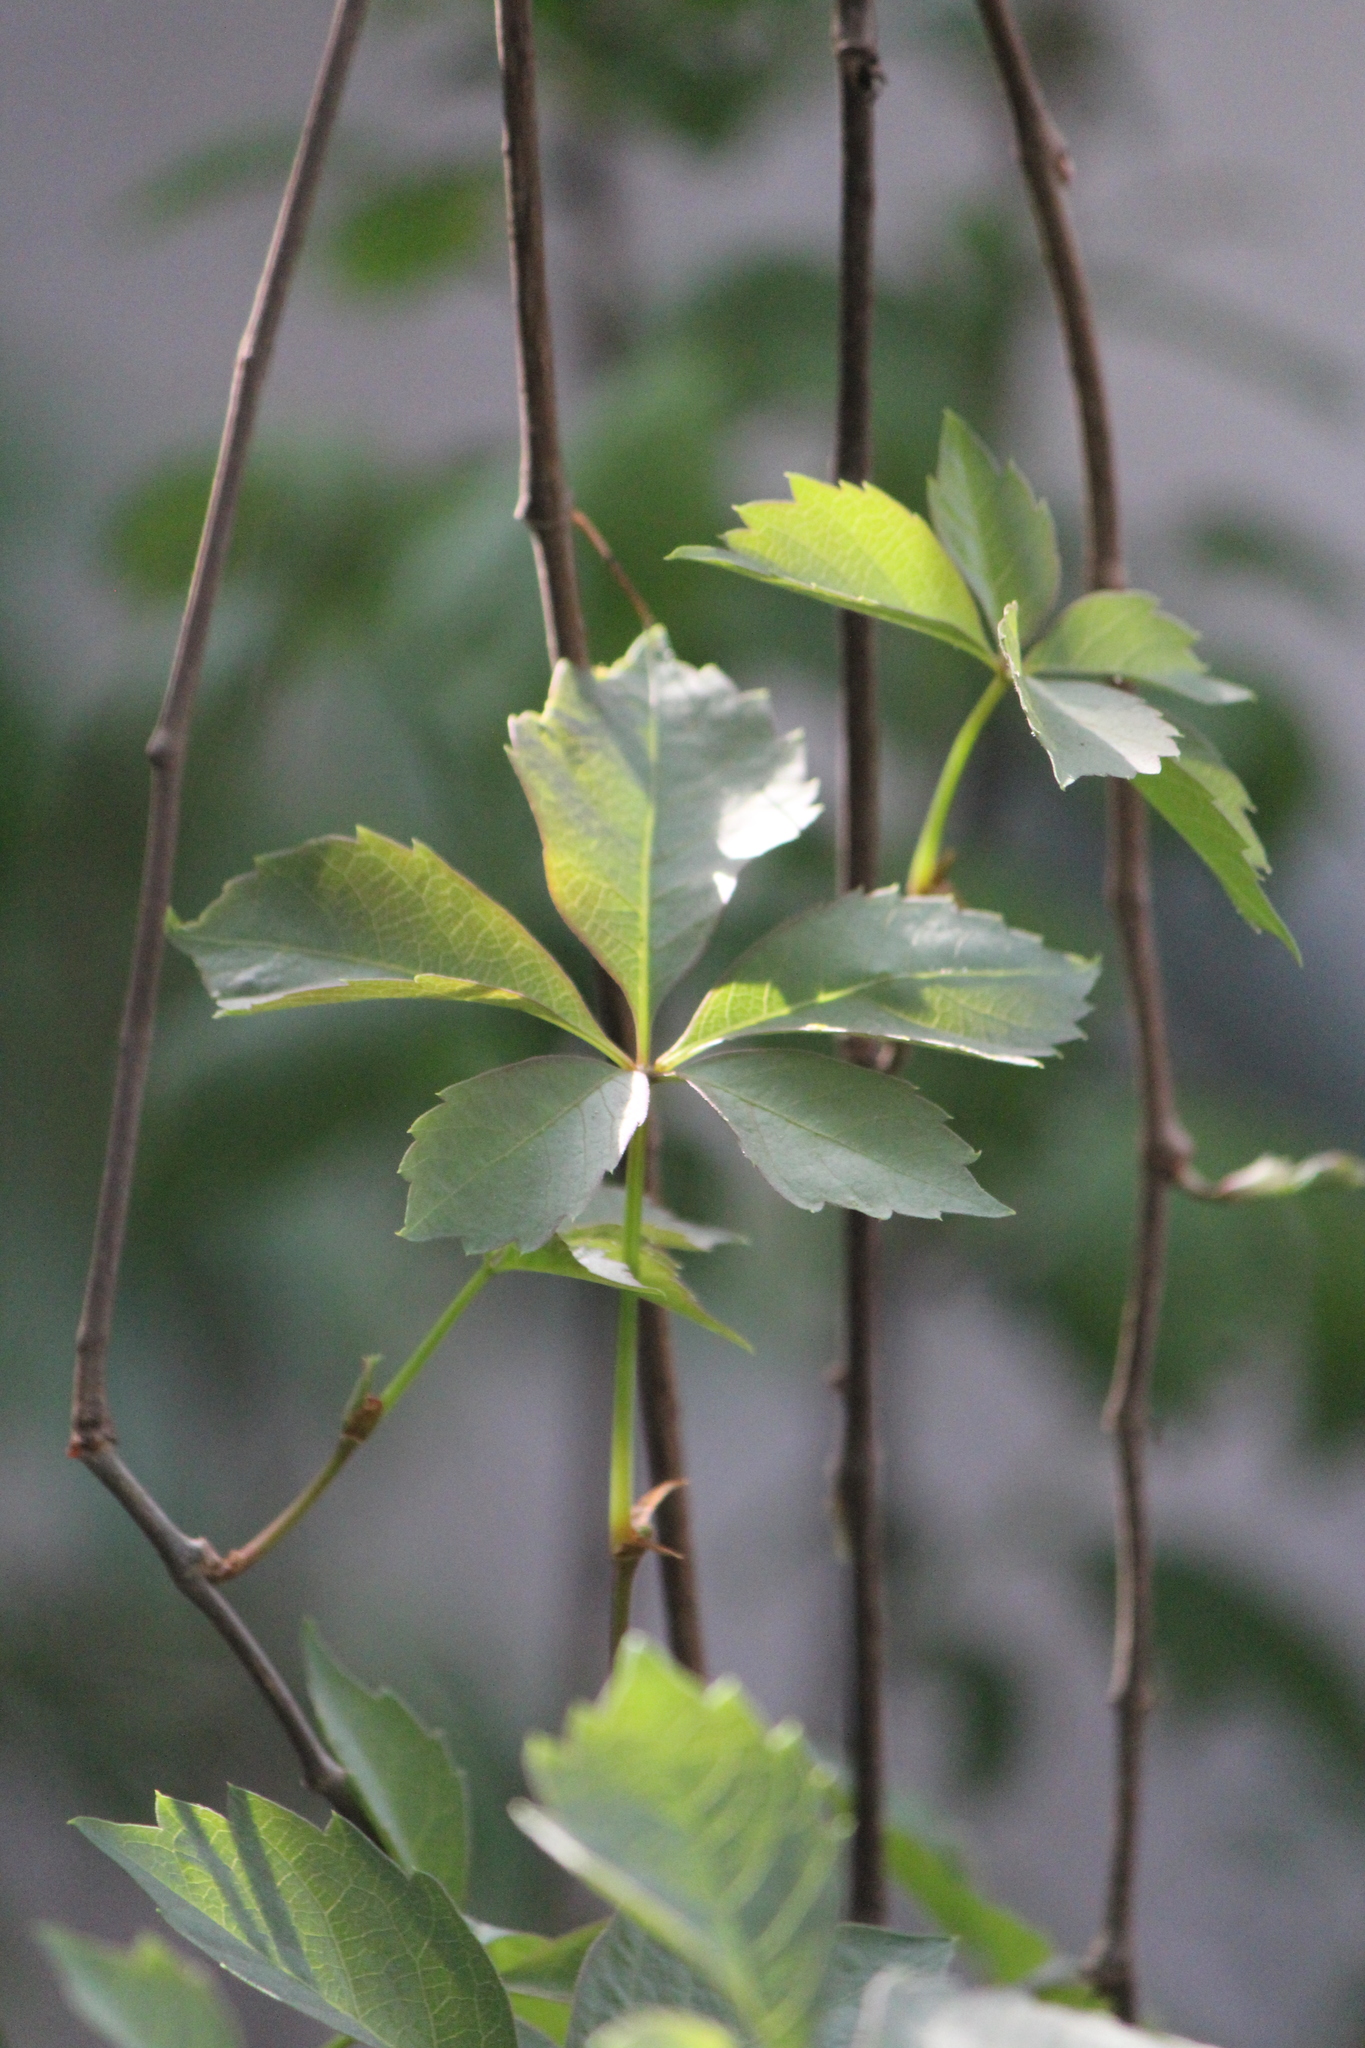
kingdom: Plantae
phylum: Tracheophyta
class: Magnoliopsida
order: Vitales
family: Vitaceae
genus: Parthenocissus
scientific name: Parthenocissus quinquefolia
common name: Virginia-creeper
